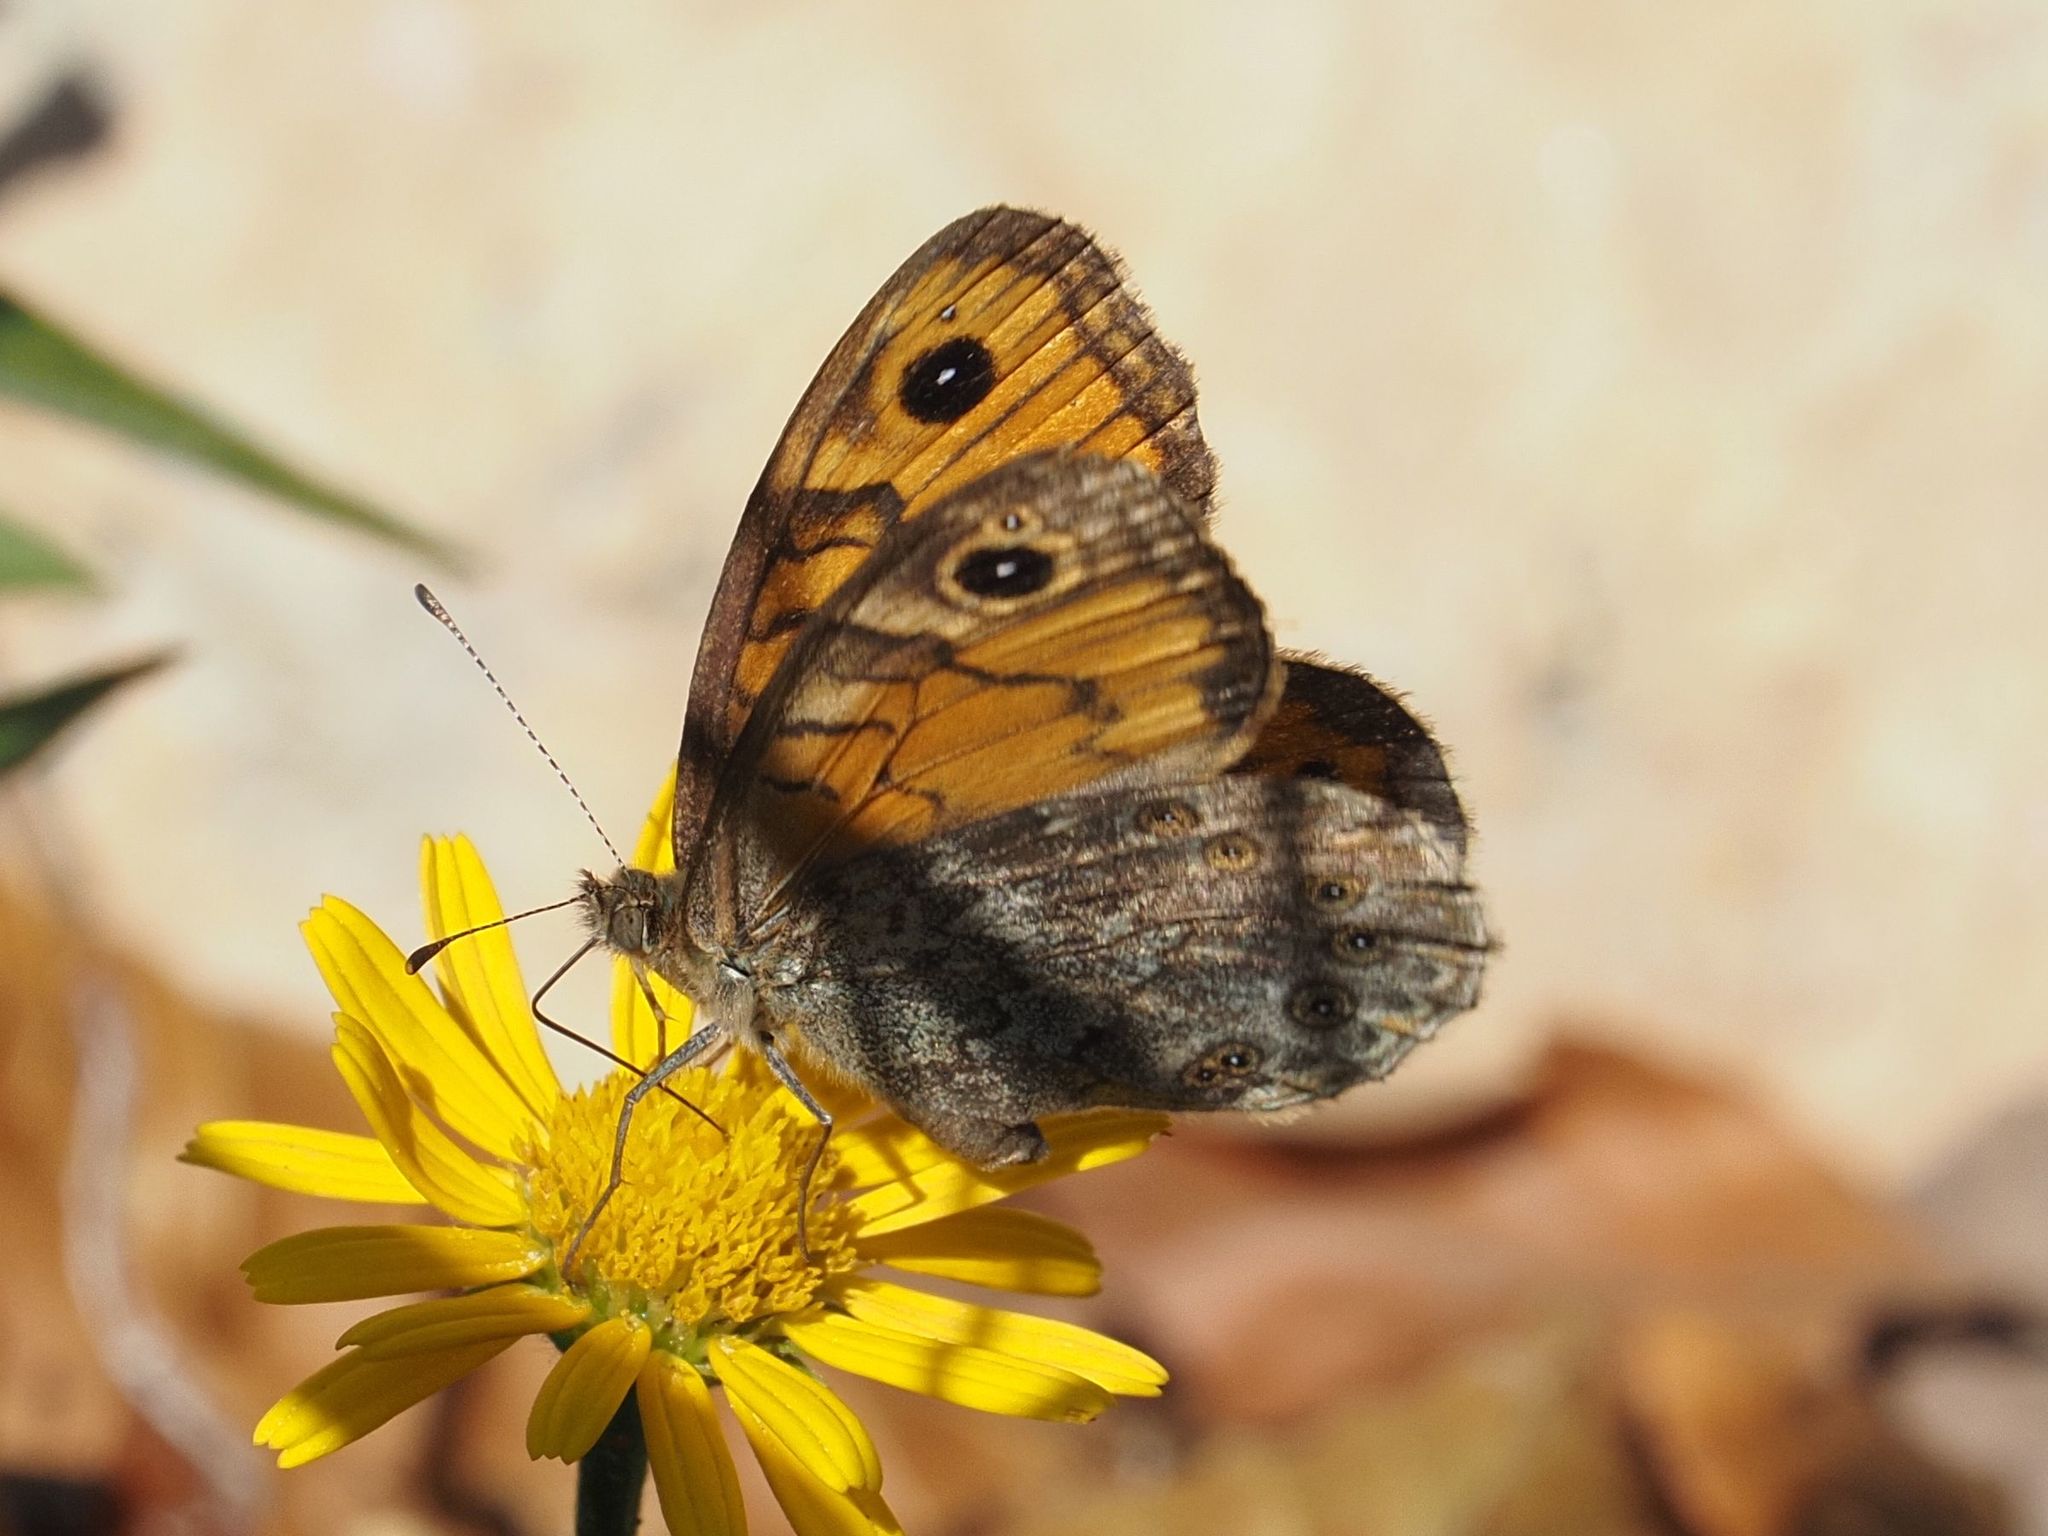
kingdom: Animalia
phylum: Arthropoda
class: Insecta
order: Lepidoptera
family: Nymphalidae
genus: Pararge
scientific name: Pararge Lasiommata megera
